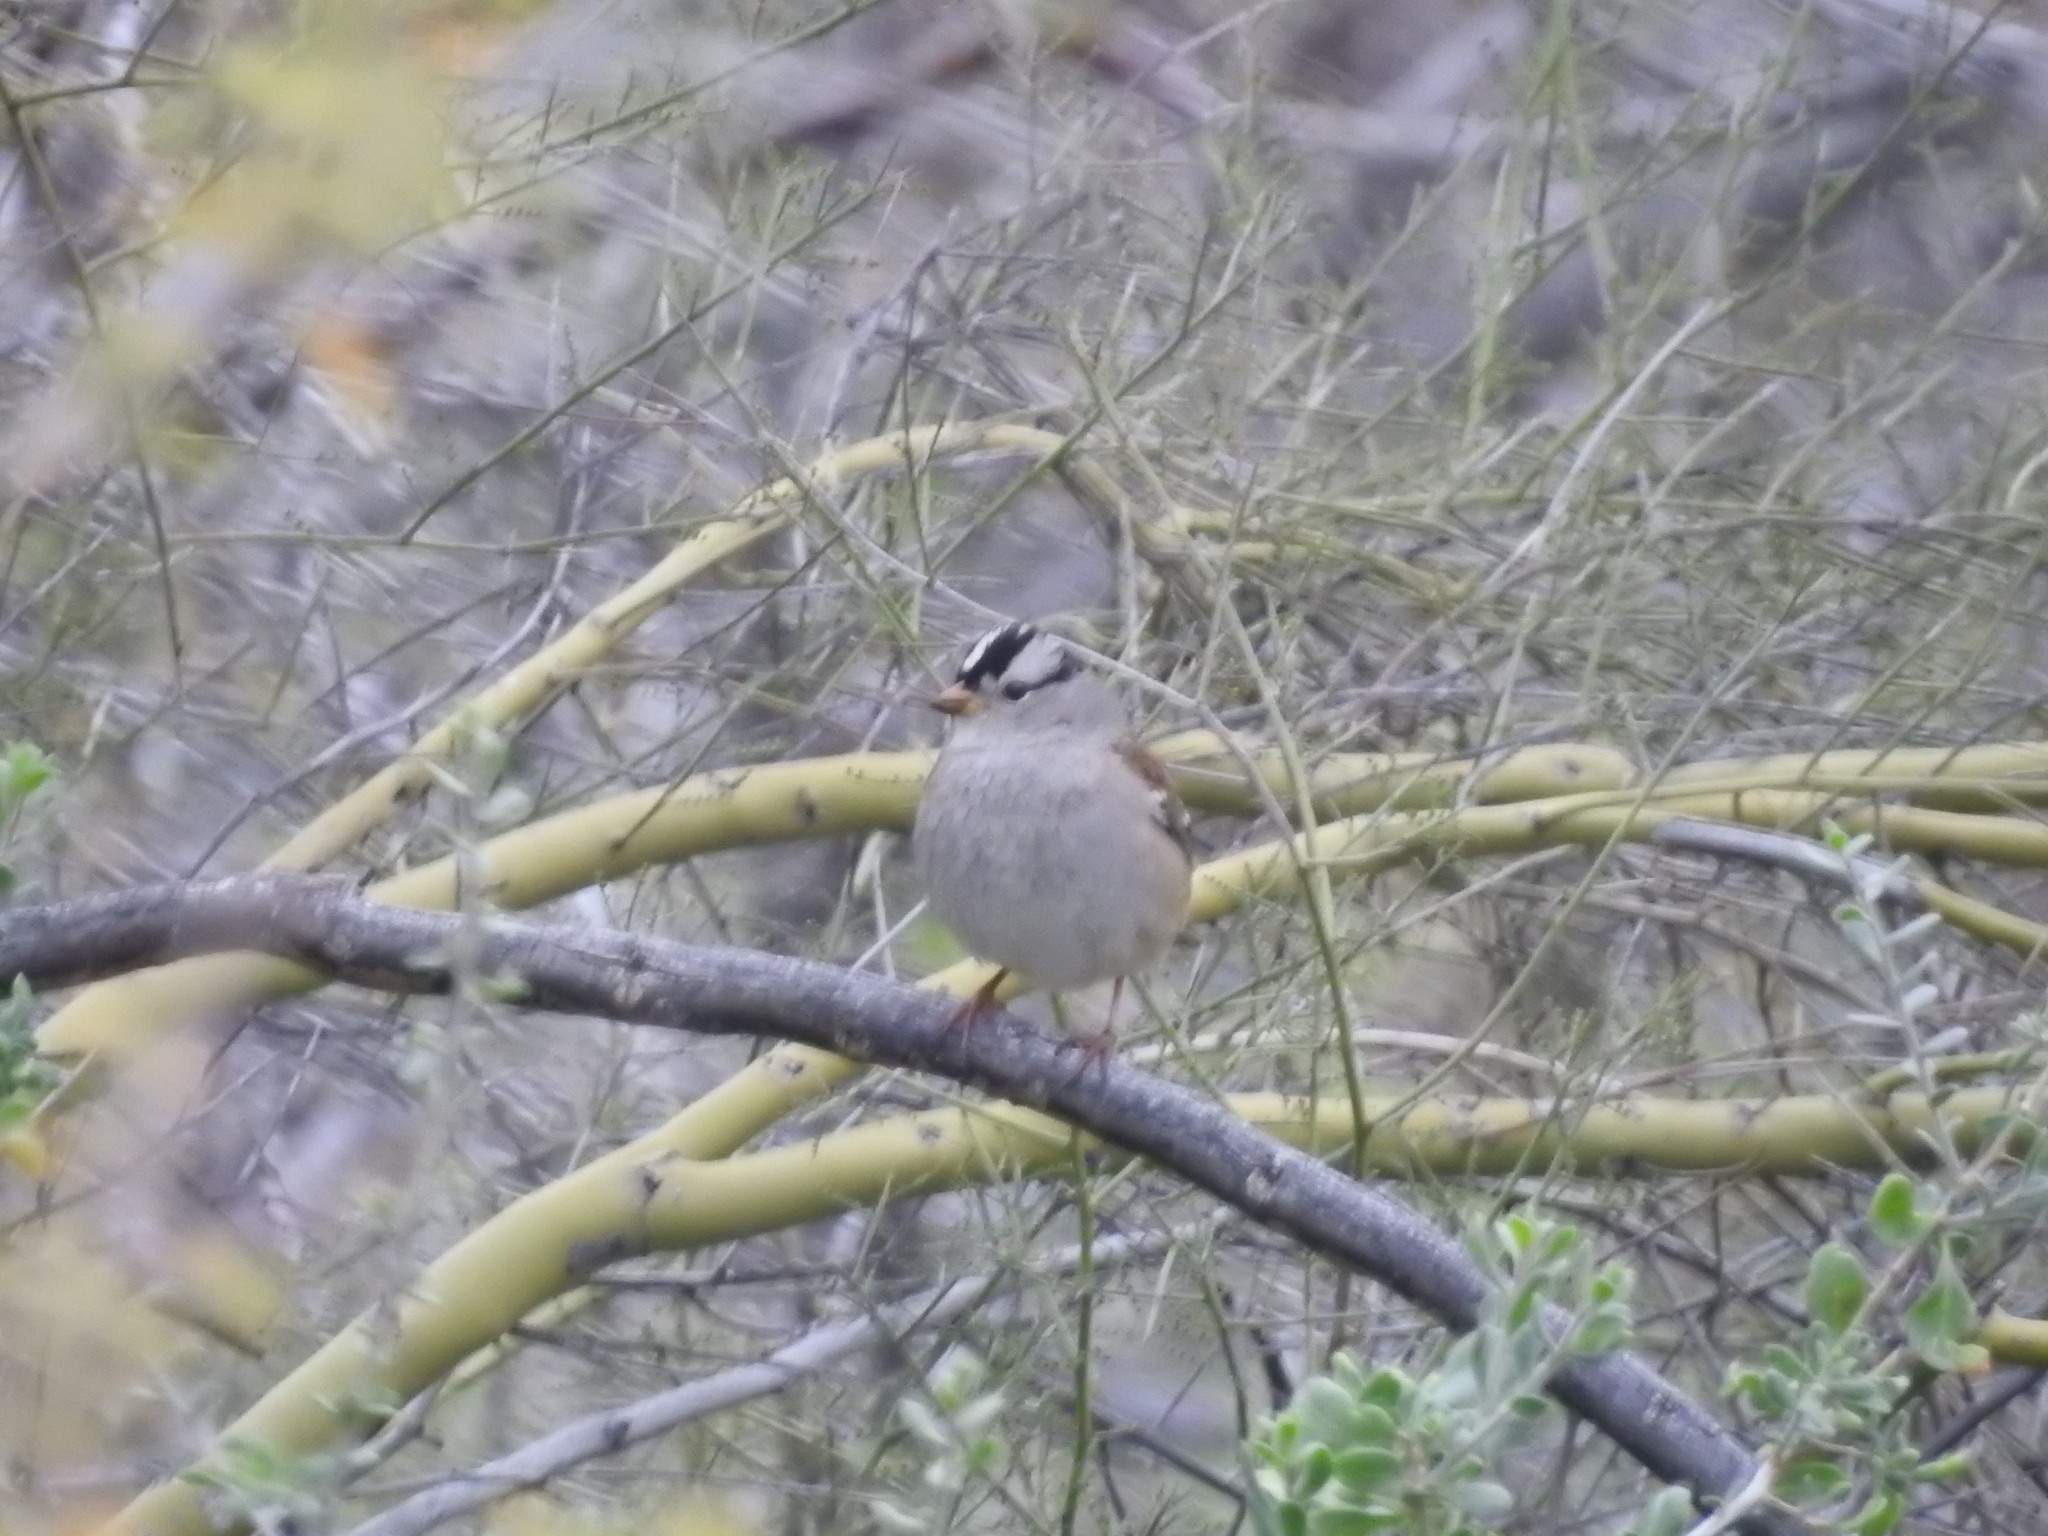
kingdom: Animalia
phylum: Chordata
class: Aves
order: Passeriformes
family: Passerellidae
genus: Zonotrichia
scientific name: Zonotrichia leucophrys
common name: White-crowned sparrow
